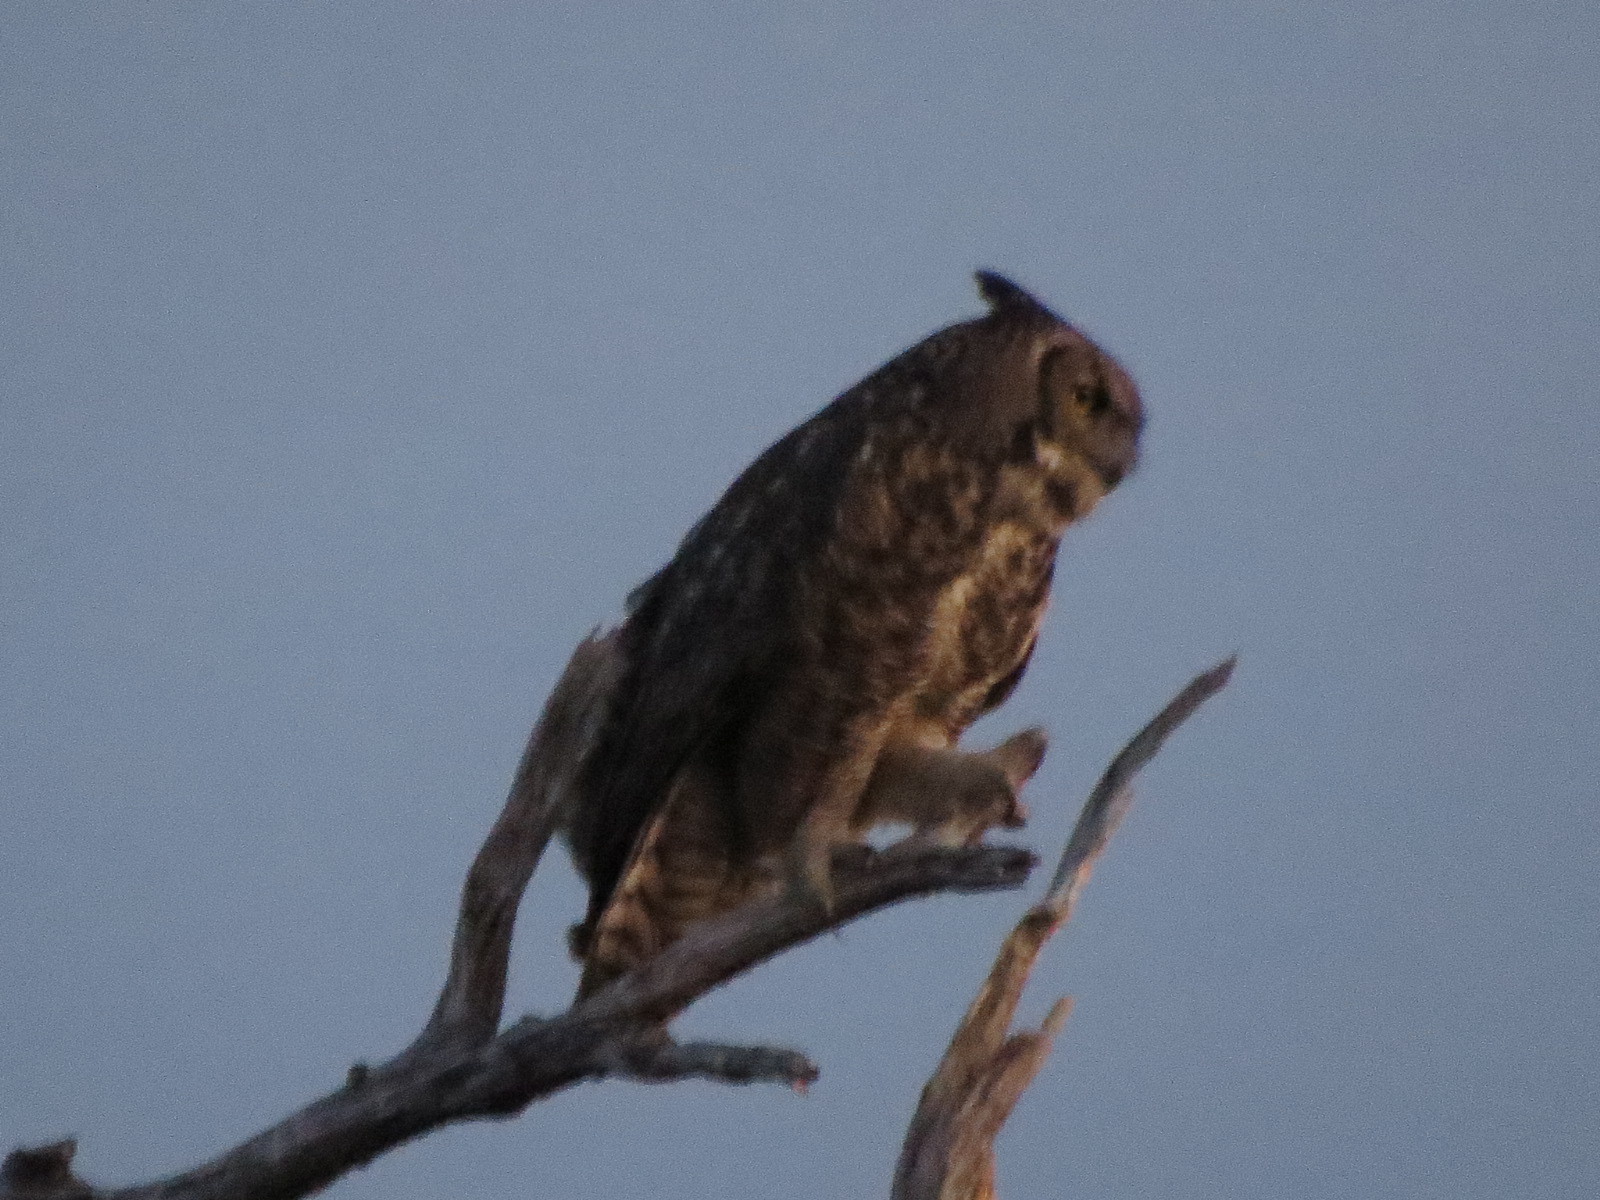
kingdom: Animalia
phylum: Chordata
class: Aves
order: Strigiformes
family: Strigidae
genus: Bubo
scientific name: Bubo virginianus
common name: Great horned owl
